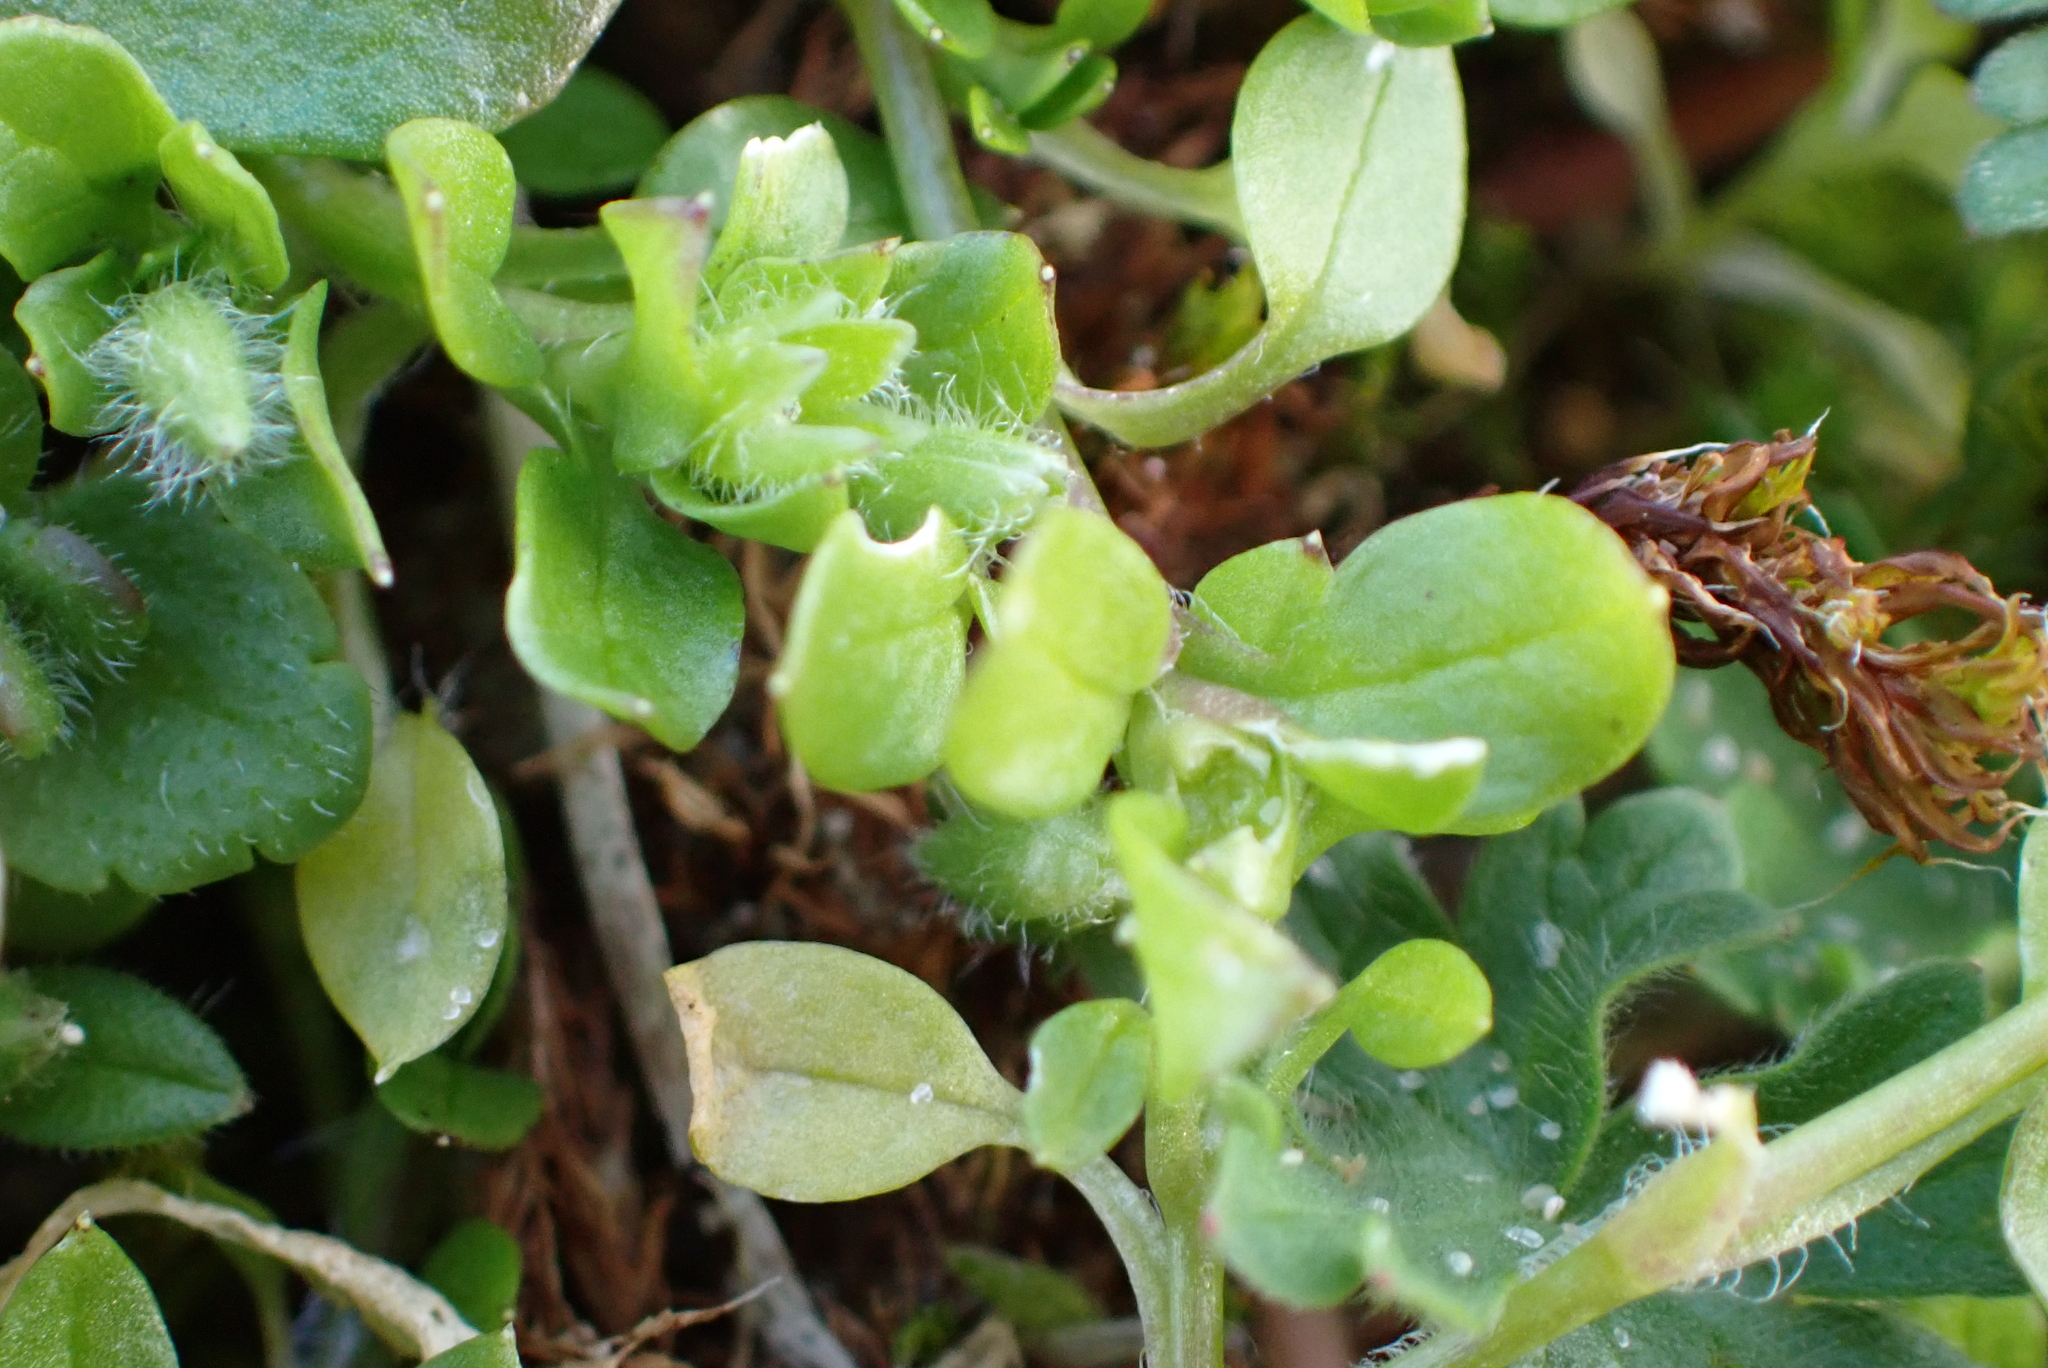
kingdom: Plantae
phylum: Tracheophyta
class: Magnoliopsida
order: Caryophyllales
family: Caryophyllaceae
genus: Stellaria
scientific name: Stellaria apetala
